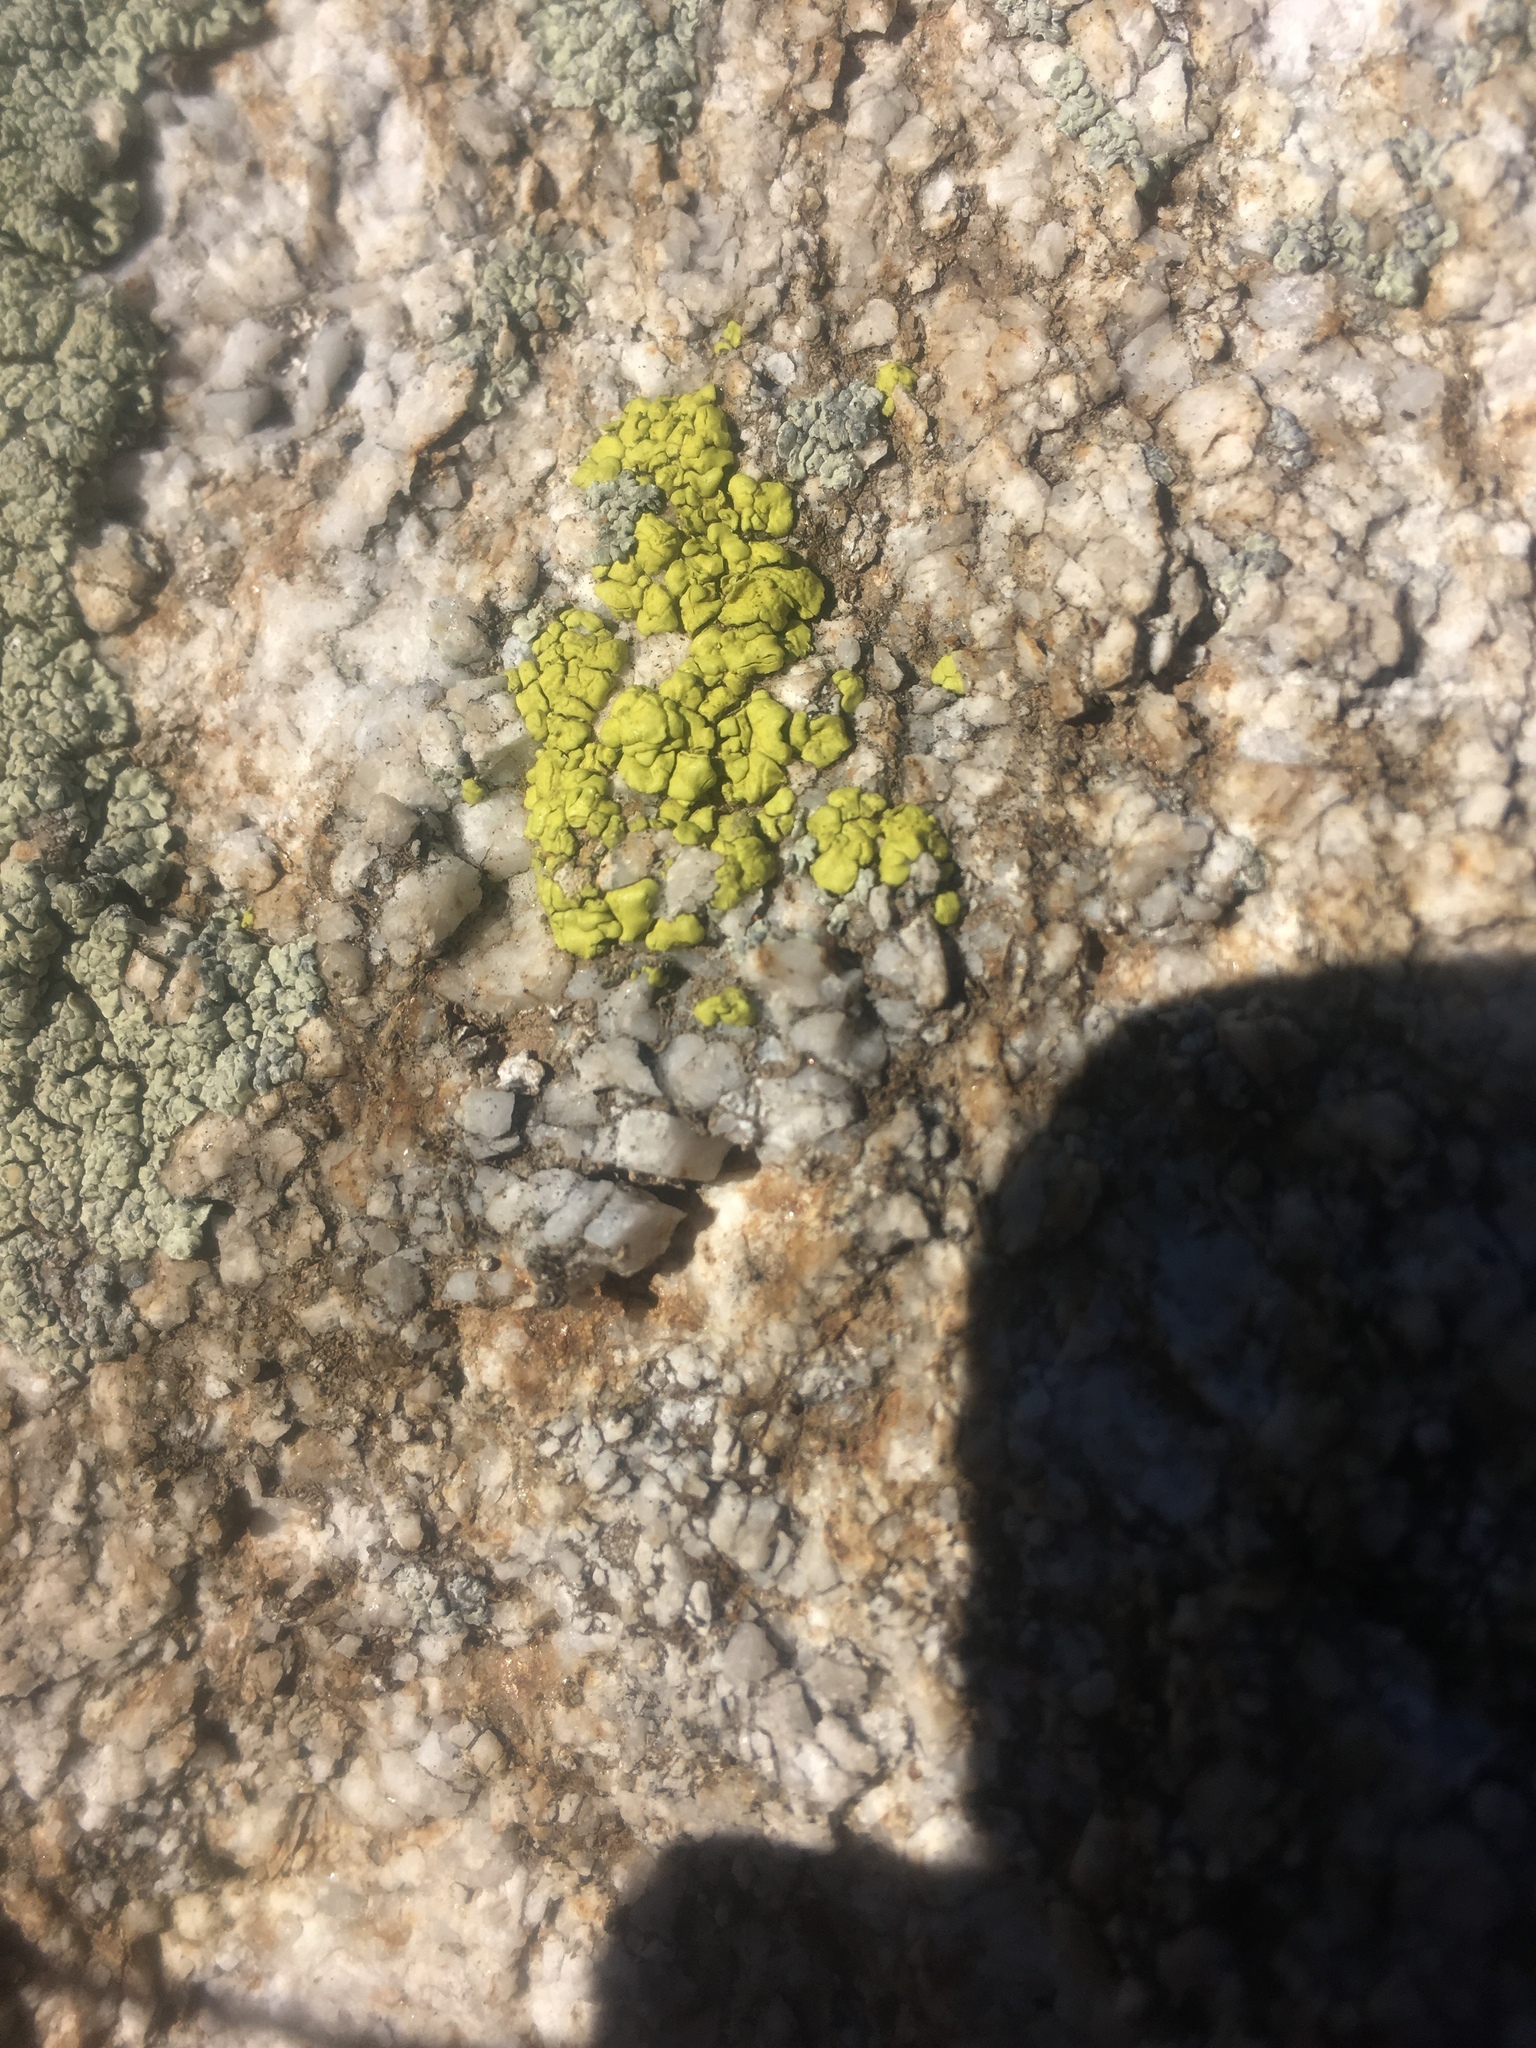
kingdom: Fungi
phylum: Ascomycota
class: Lecanoromycetes
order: Acarosporales
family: Acarosporaceae
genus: Acarospora
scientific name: Acarospora socialis
